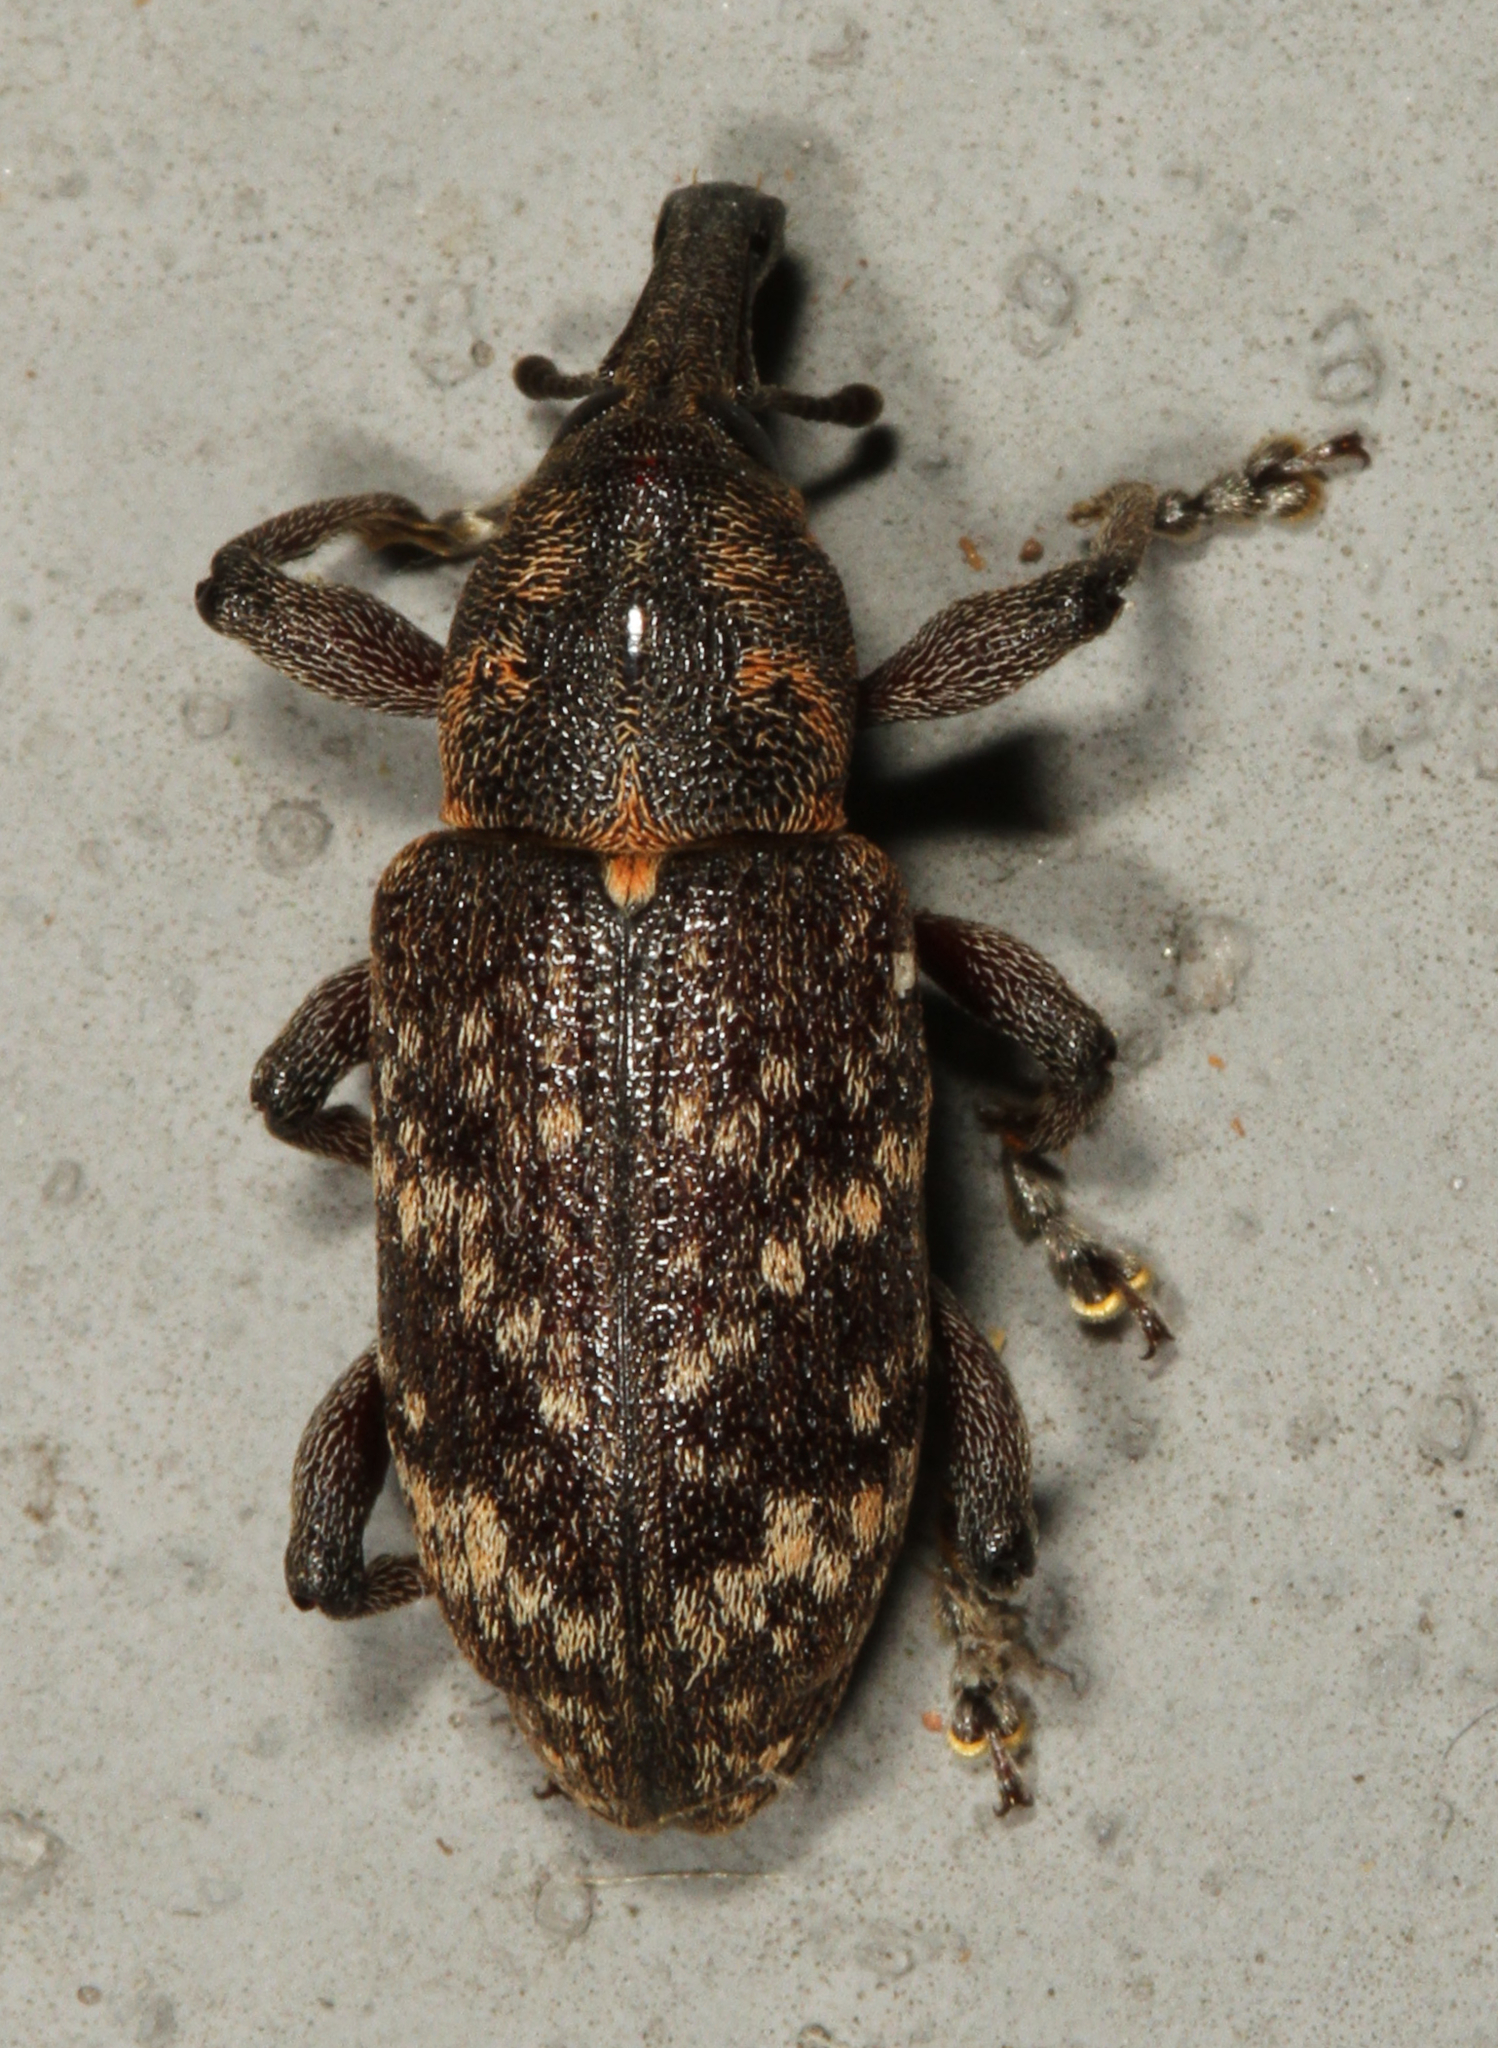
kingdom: Animalia
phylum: Arthropoda
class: Insecta
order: Coleoptera
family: Curculionidae
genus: Hylobius
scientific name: Hylobius pales
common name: Pales weevil
